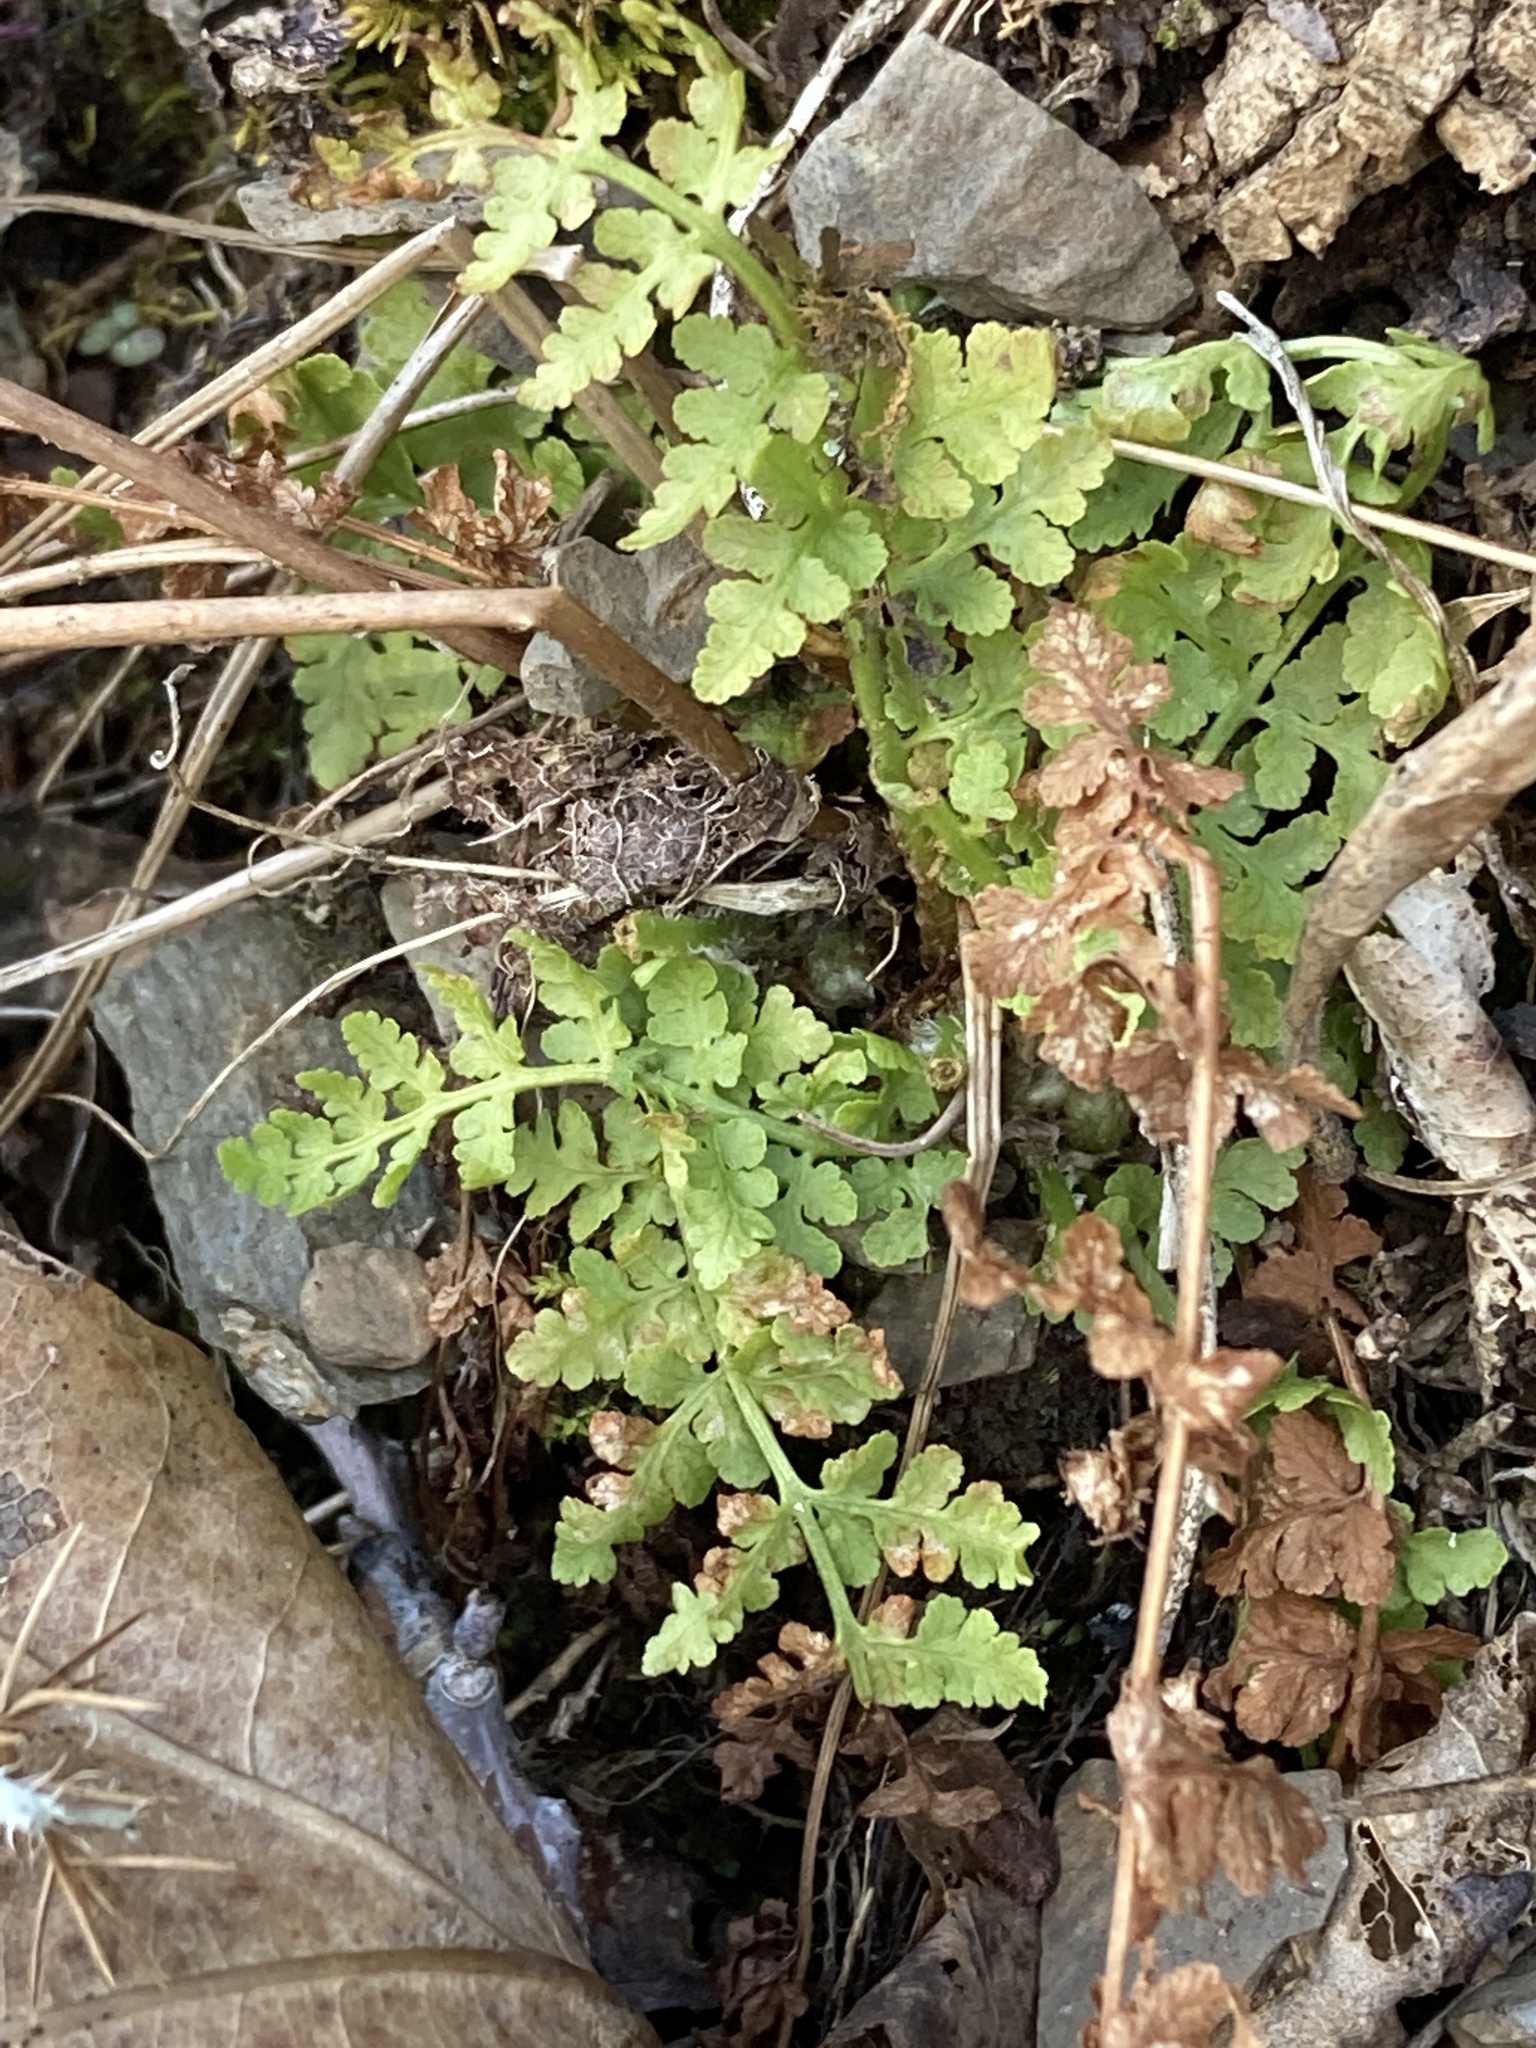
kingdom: Plantae
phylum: Tracheophyta
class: Polypodiopsida
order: Polypodiales
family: Woodsiaceae
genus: Physematium
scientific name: Physematium obtusum
